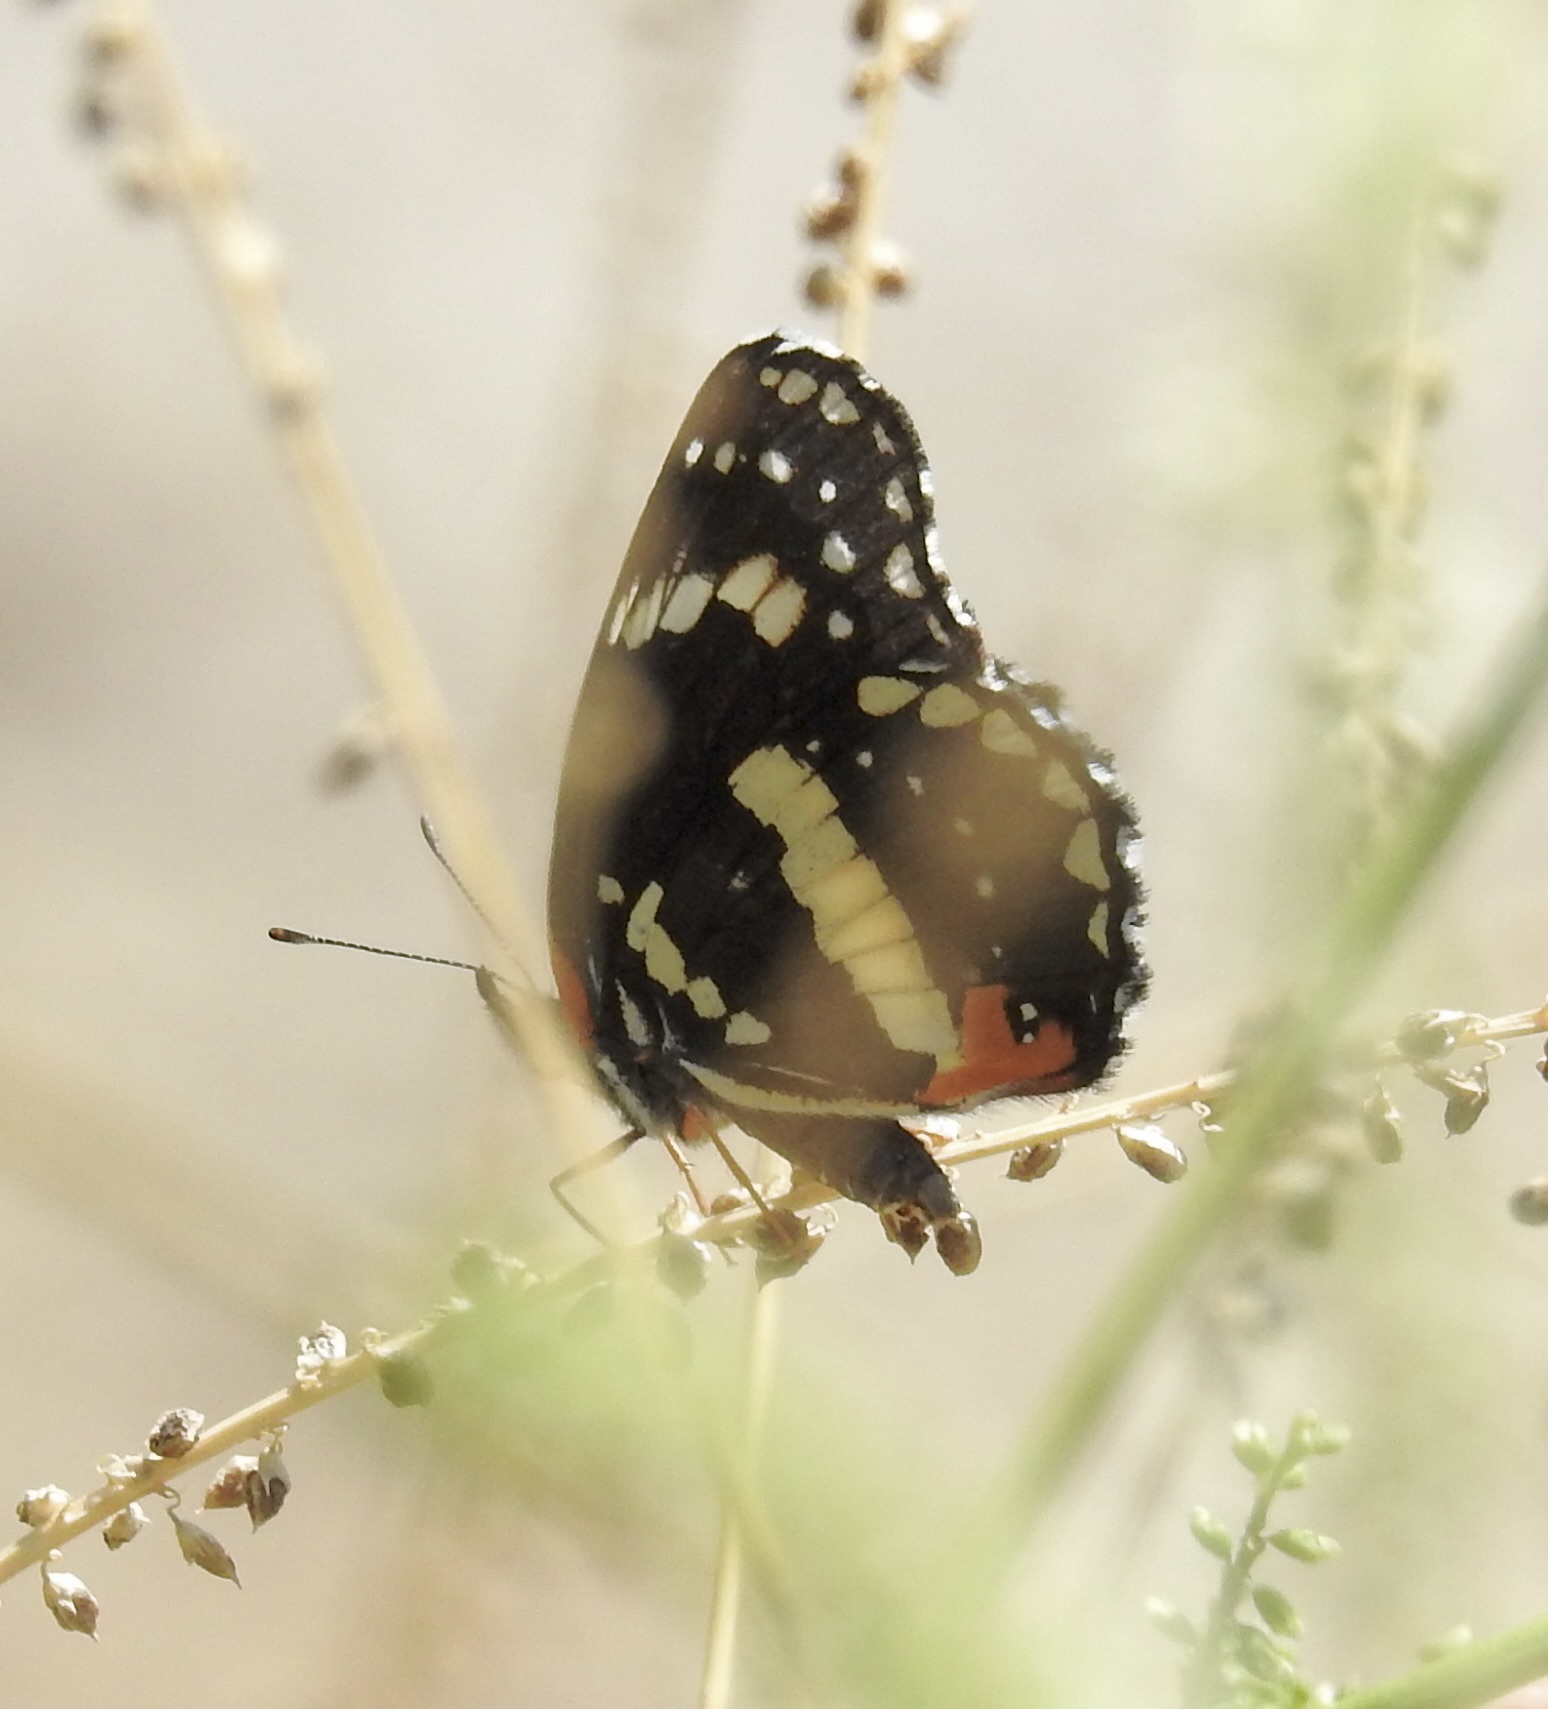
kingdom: Animalia
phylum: Arthropoda
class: Insecta
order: Lepidoptera
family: Nymphalidae
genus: Chlosyne
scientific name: Chlosyne lacinia
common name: Bordered patch
